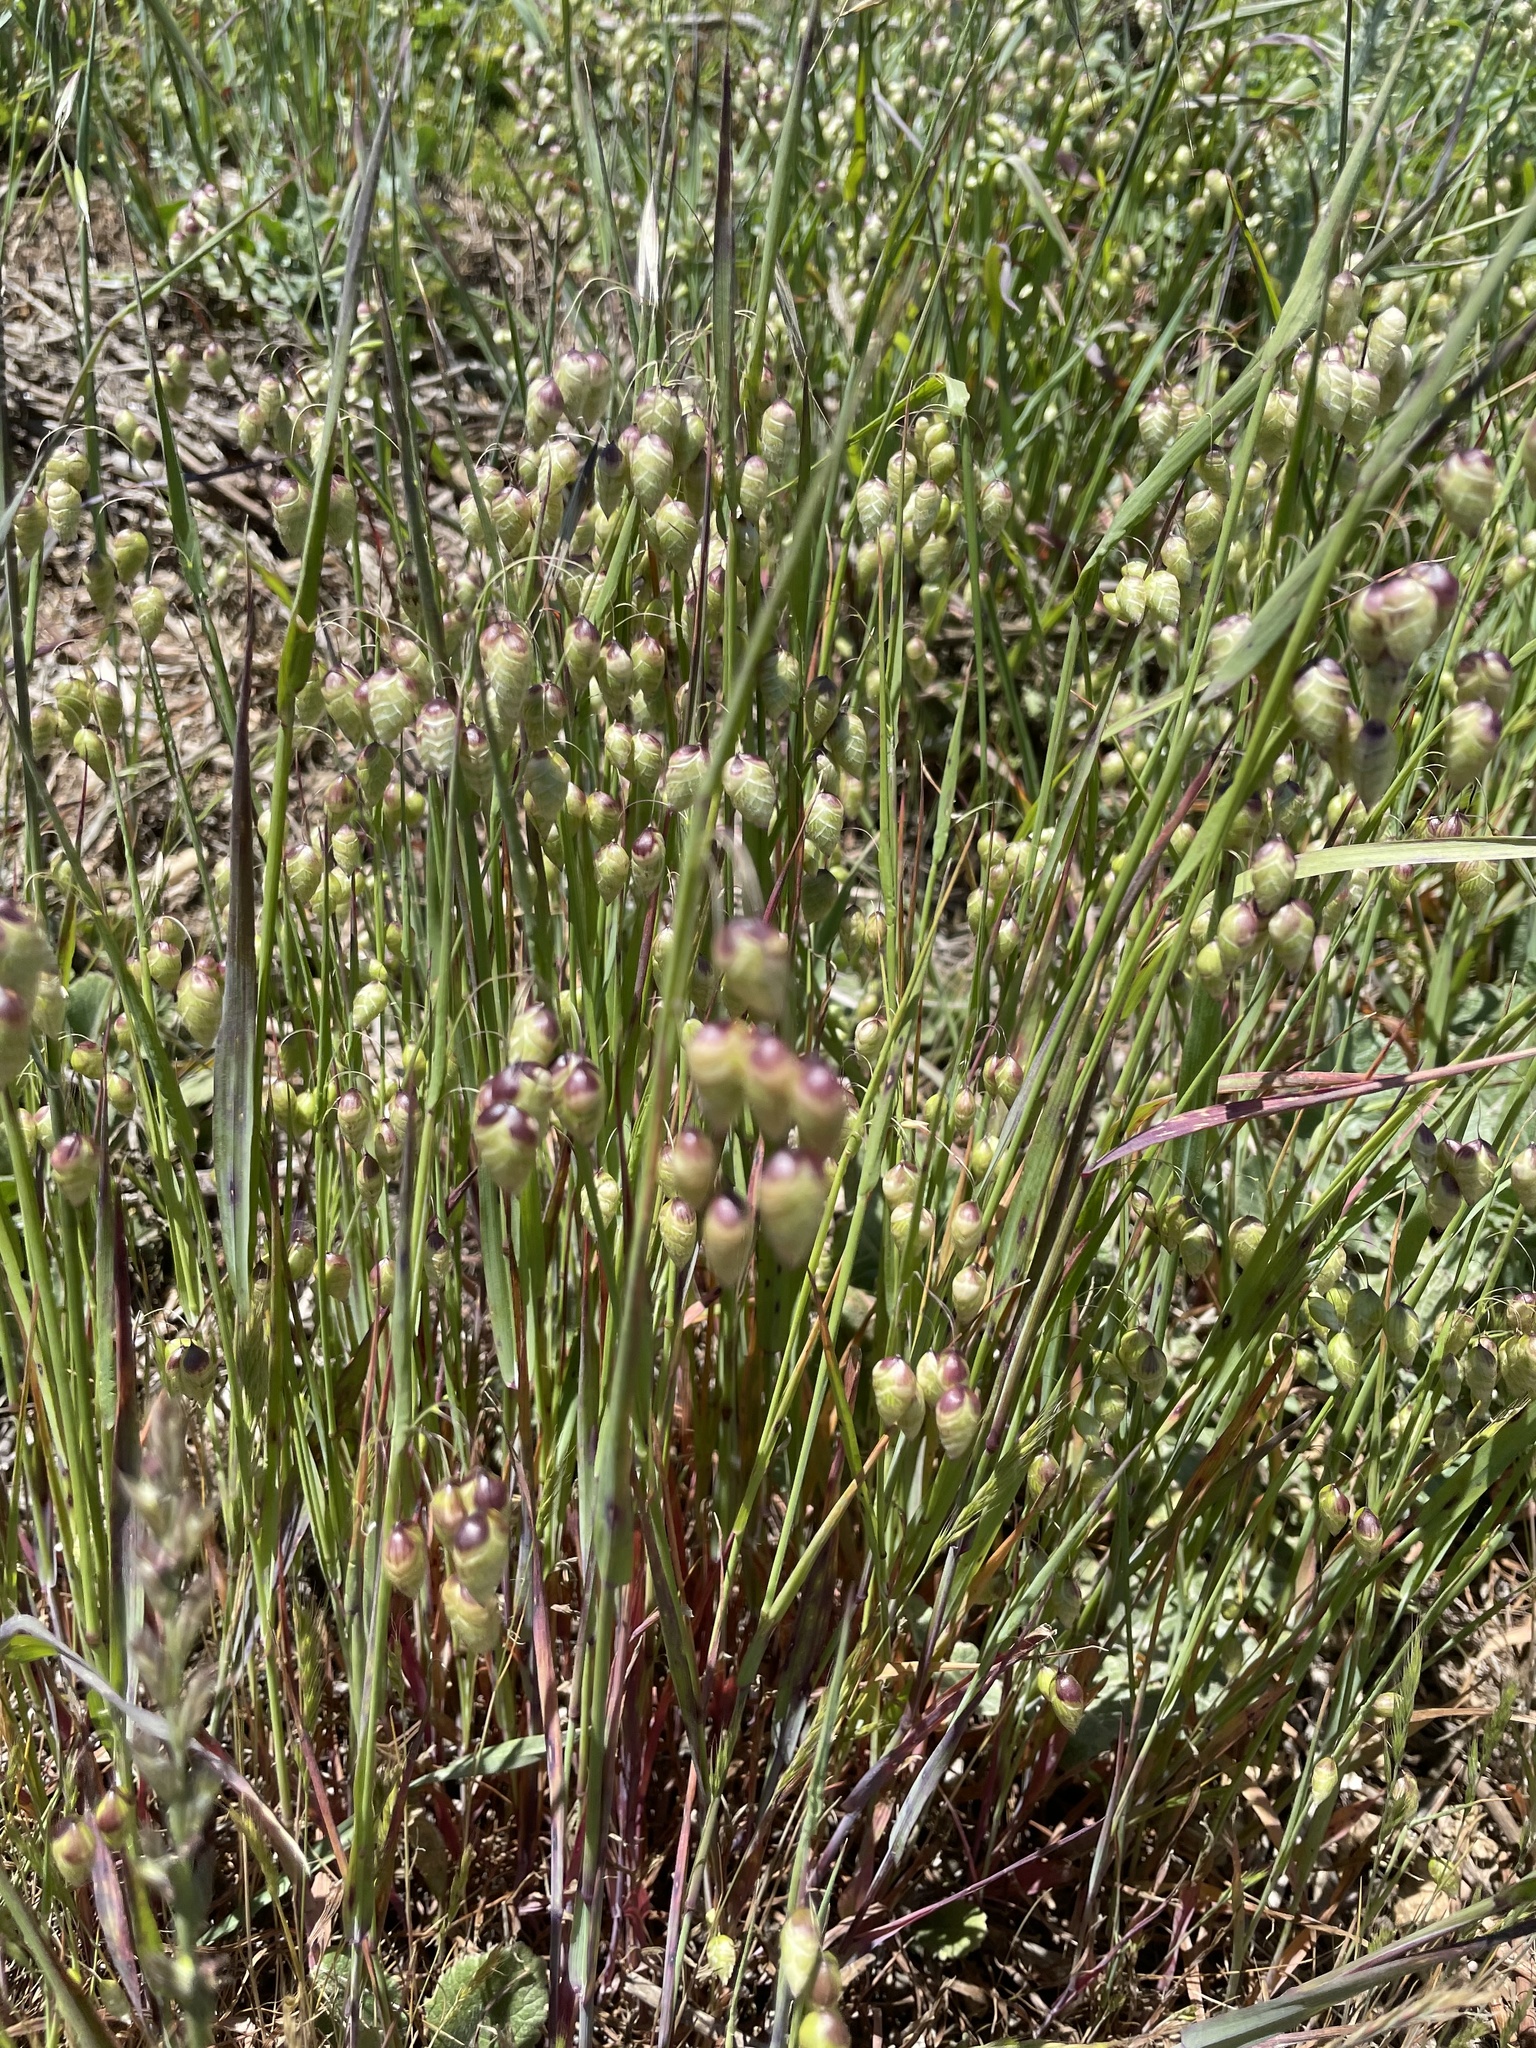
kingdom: Plantae
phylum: Tracheophyta
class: Liliopsida
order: Poales
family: Poaceae
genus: Briza
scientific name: Briza maxima
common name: Big quakinggrass
